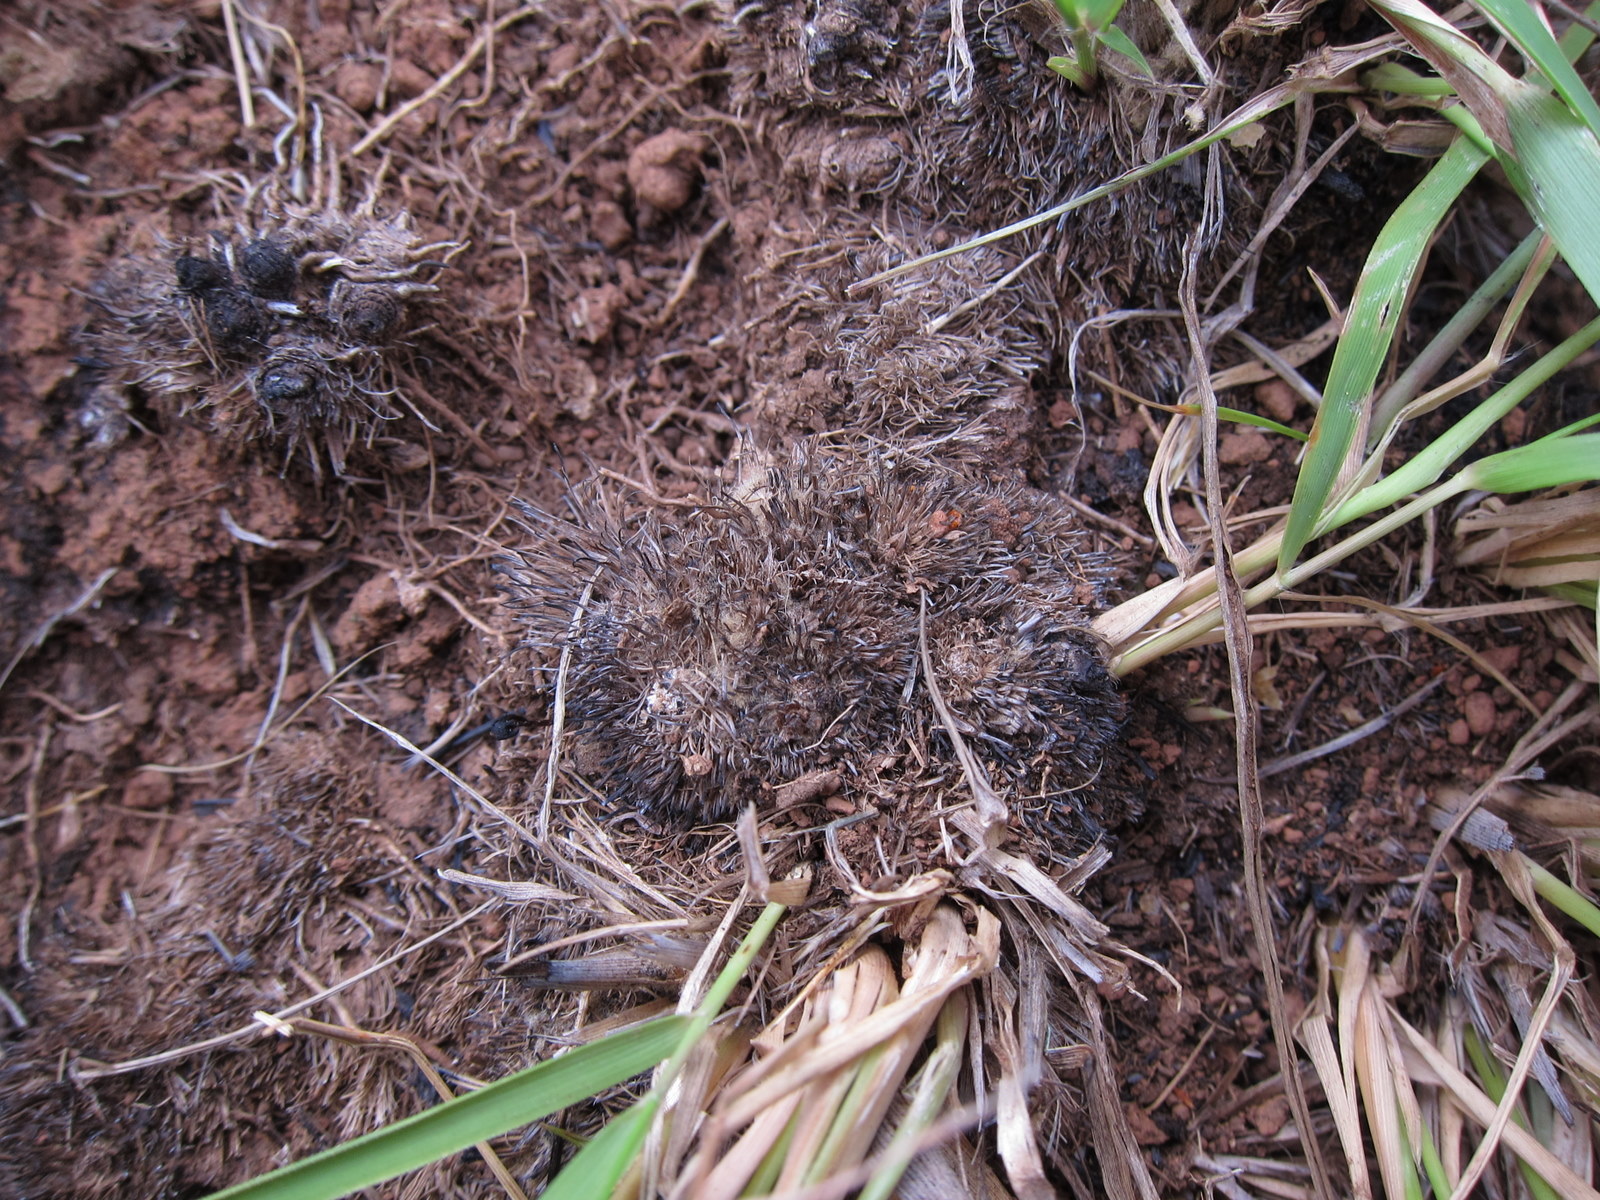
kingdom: Plantae
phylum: Tracheophyta
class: Liliopsida
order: Poales
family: Poaceae
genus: Loudetia
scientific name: Loudetia simplex
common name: Common russet grass
